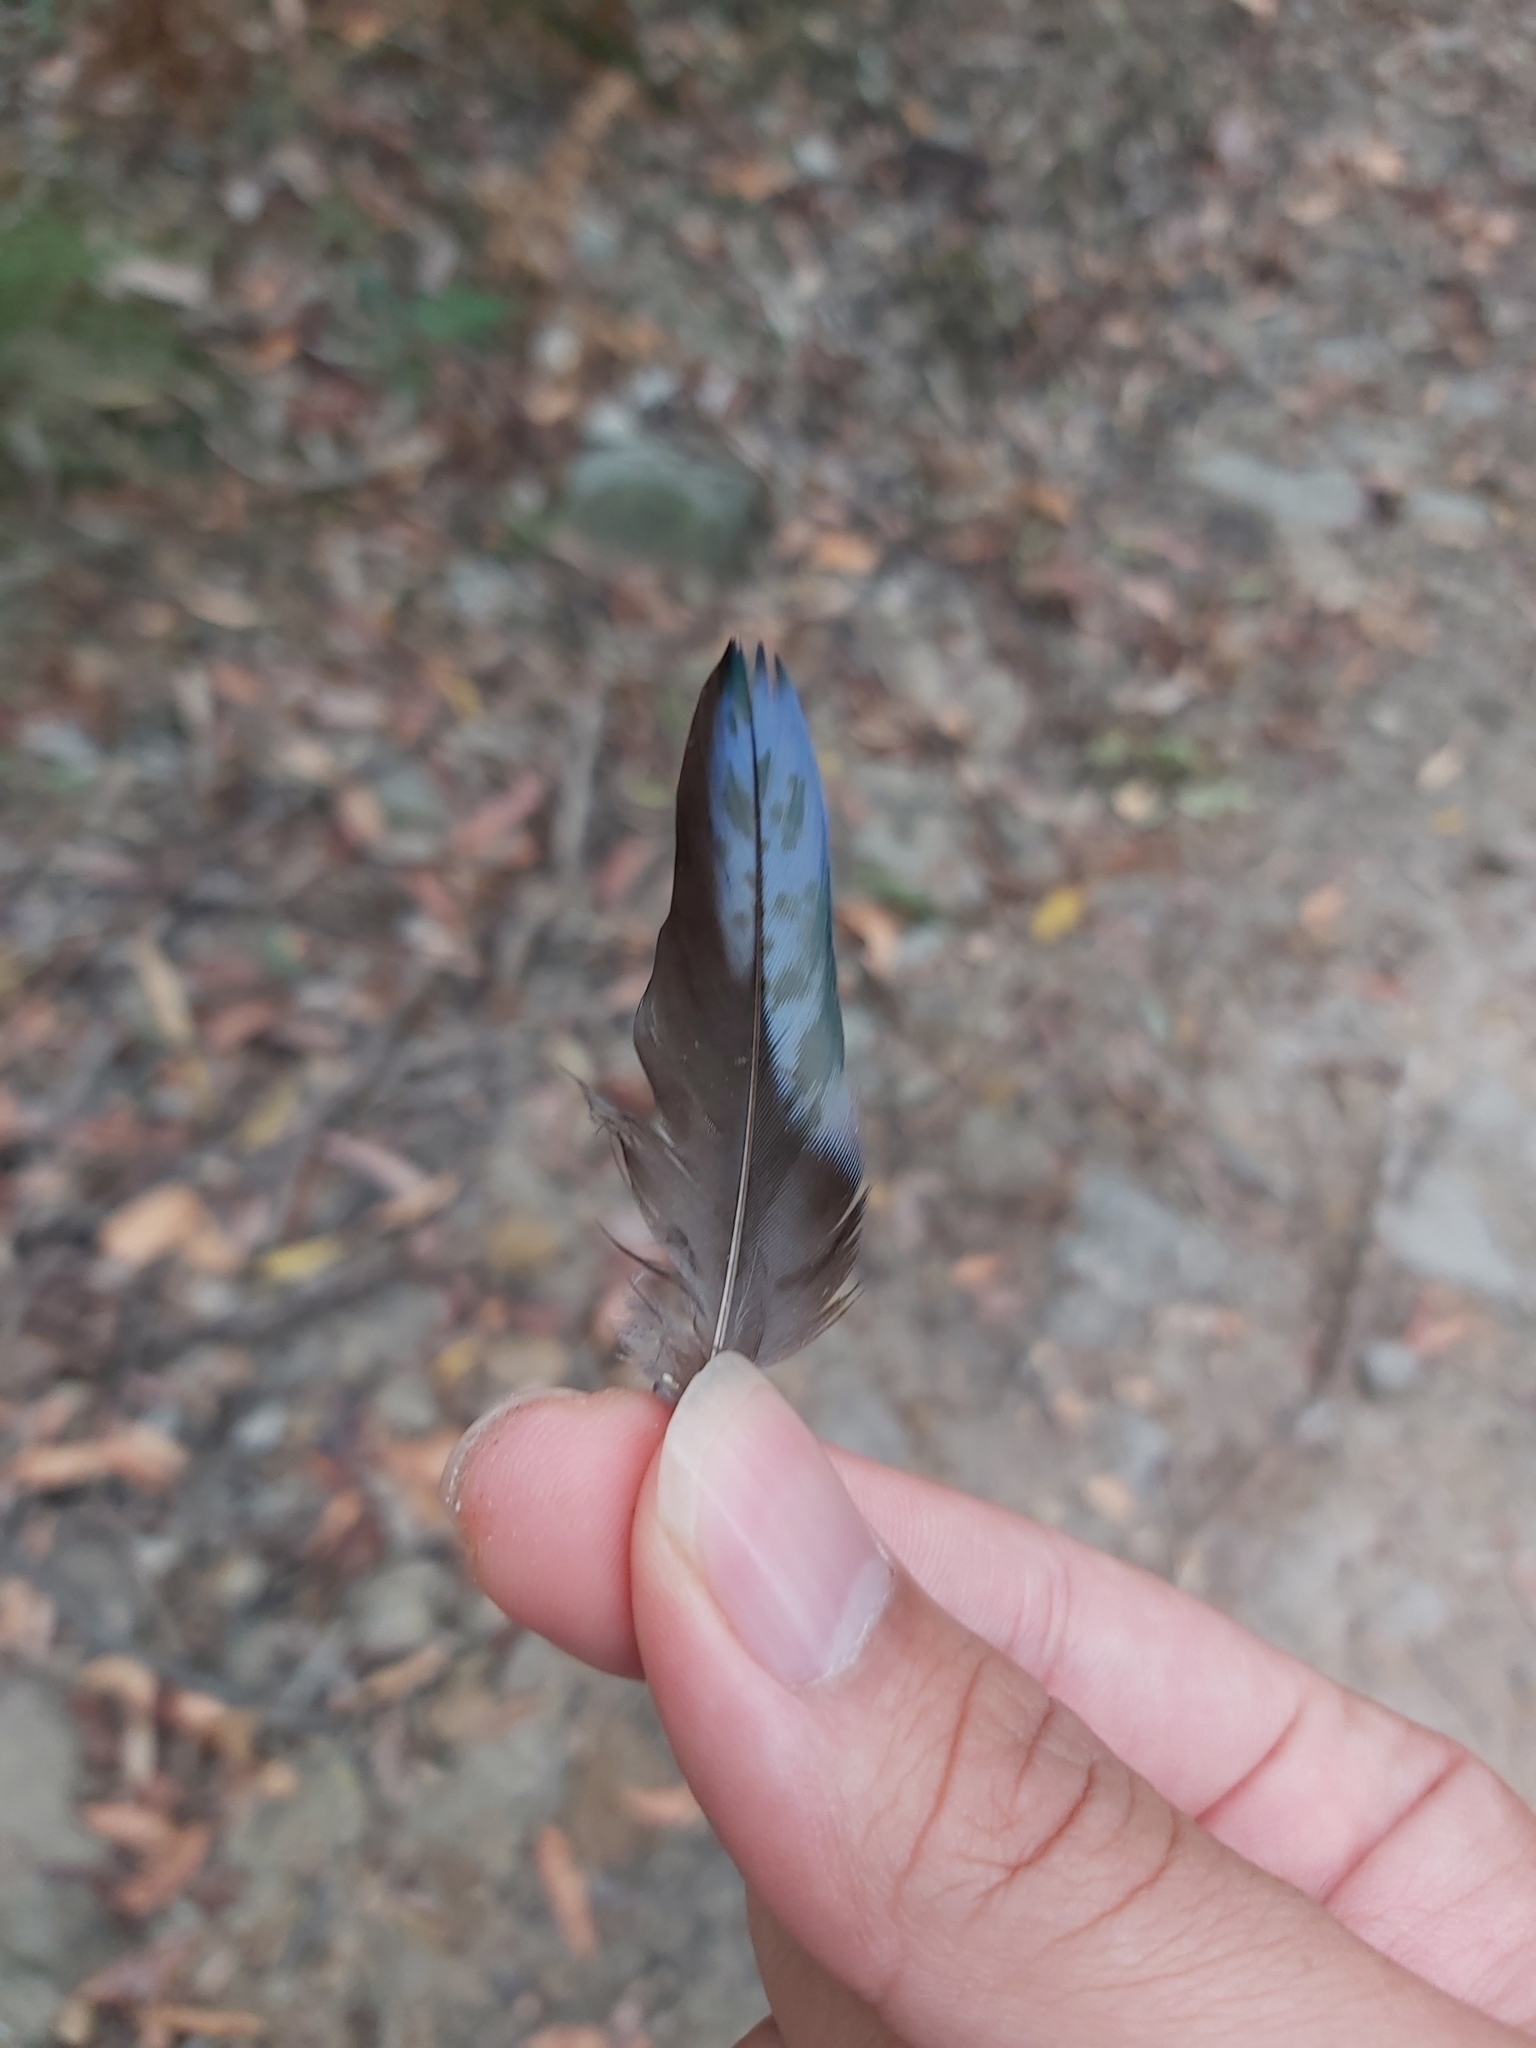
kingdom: Animalia
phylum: Chordata
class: Aves
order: Psittaciformes
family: Psittacidae
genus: Platycercus
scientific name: Platycercus elegans
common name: Crimson rosella
